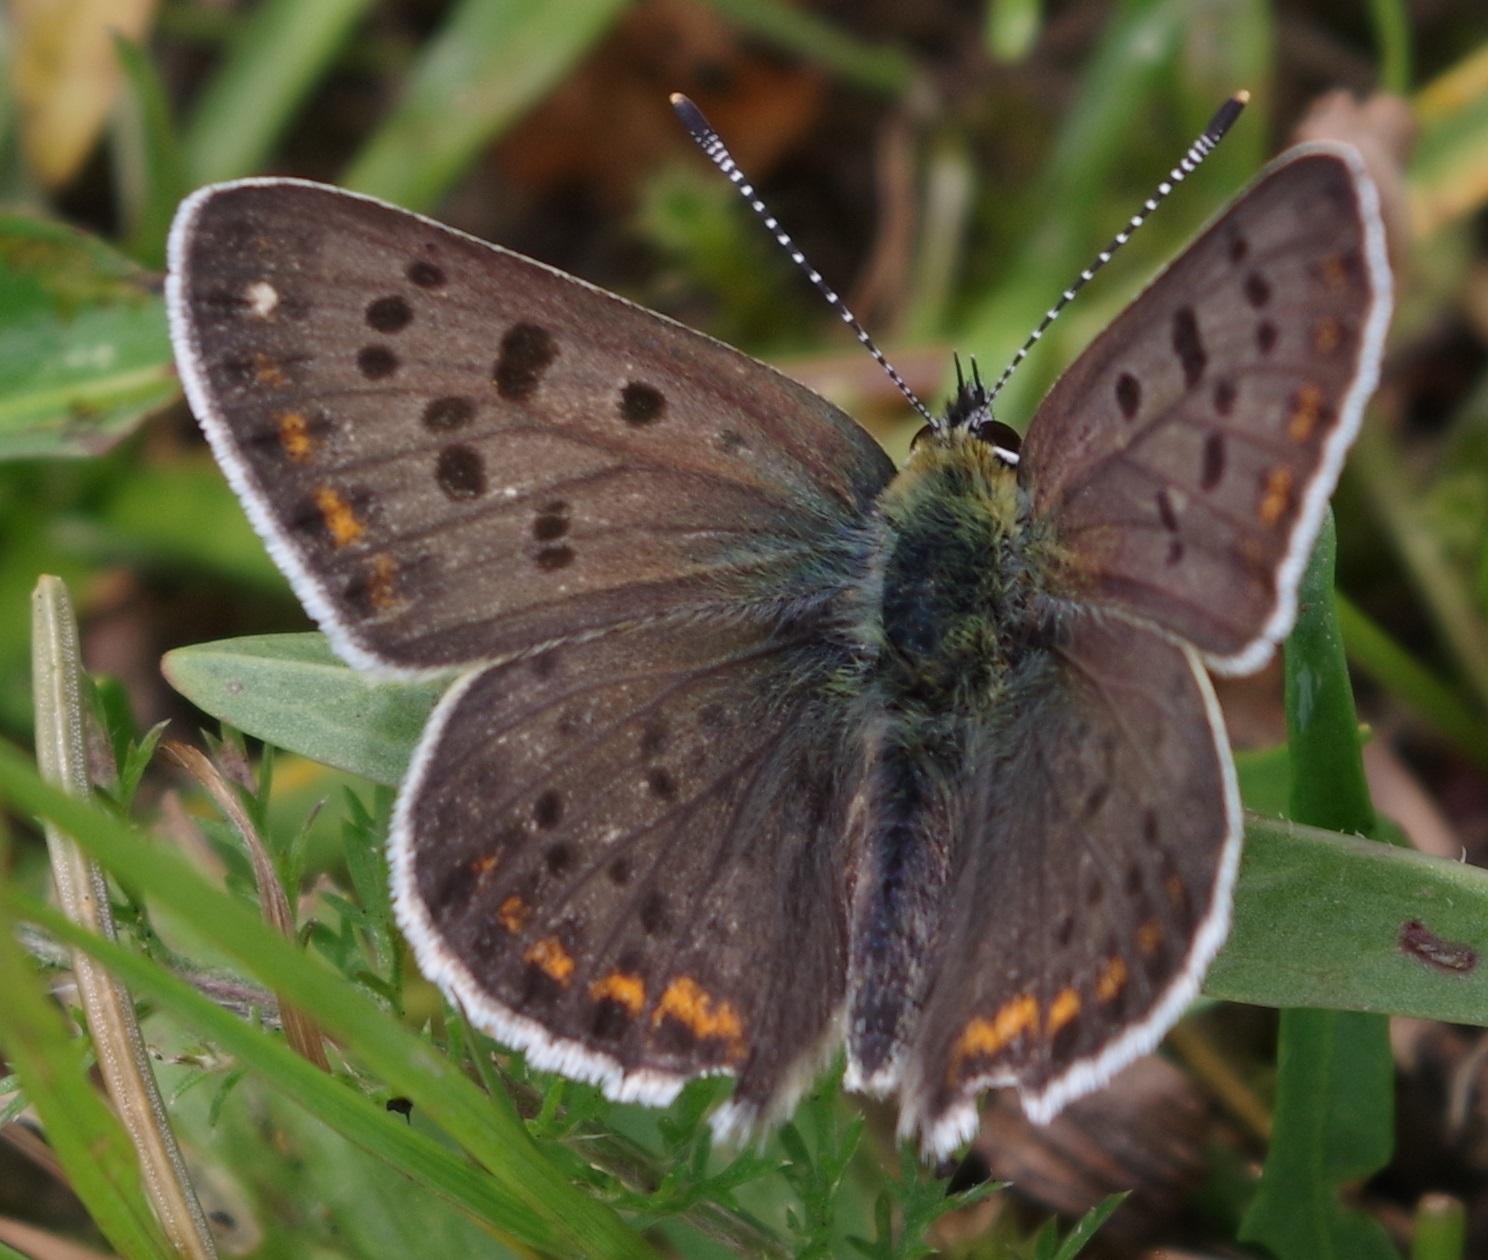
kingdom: Animalia
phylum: Arthropoda
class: Insecta
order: Lepidoptera
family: Lycaenidae
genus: Loweia
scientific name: Loweia tityrus
